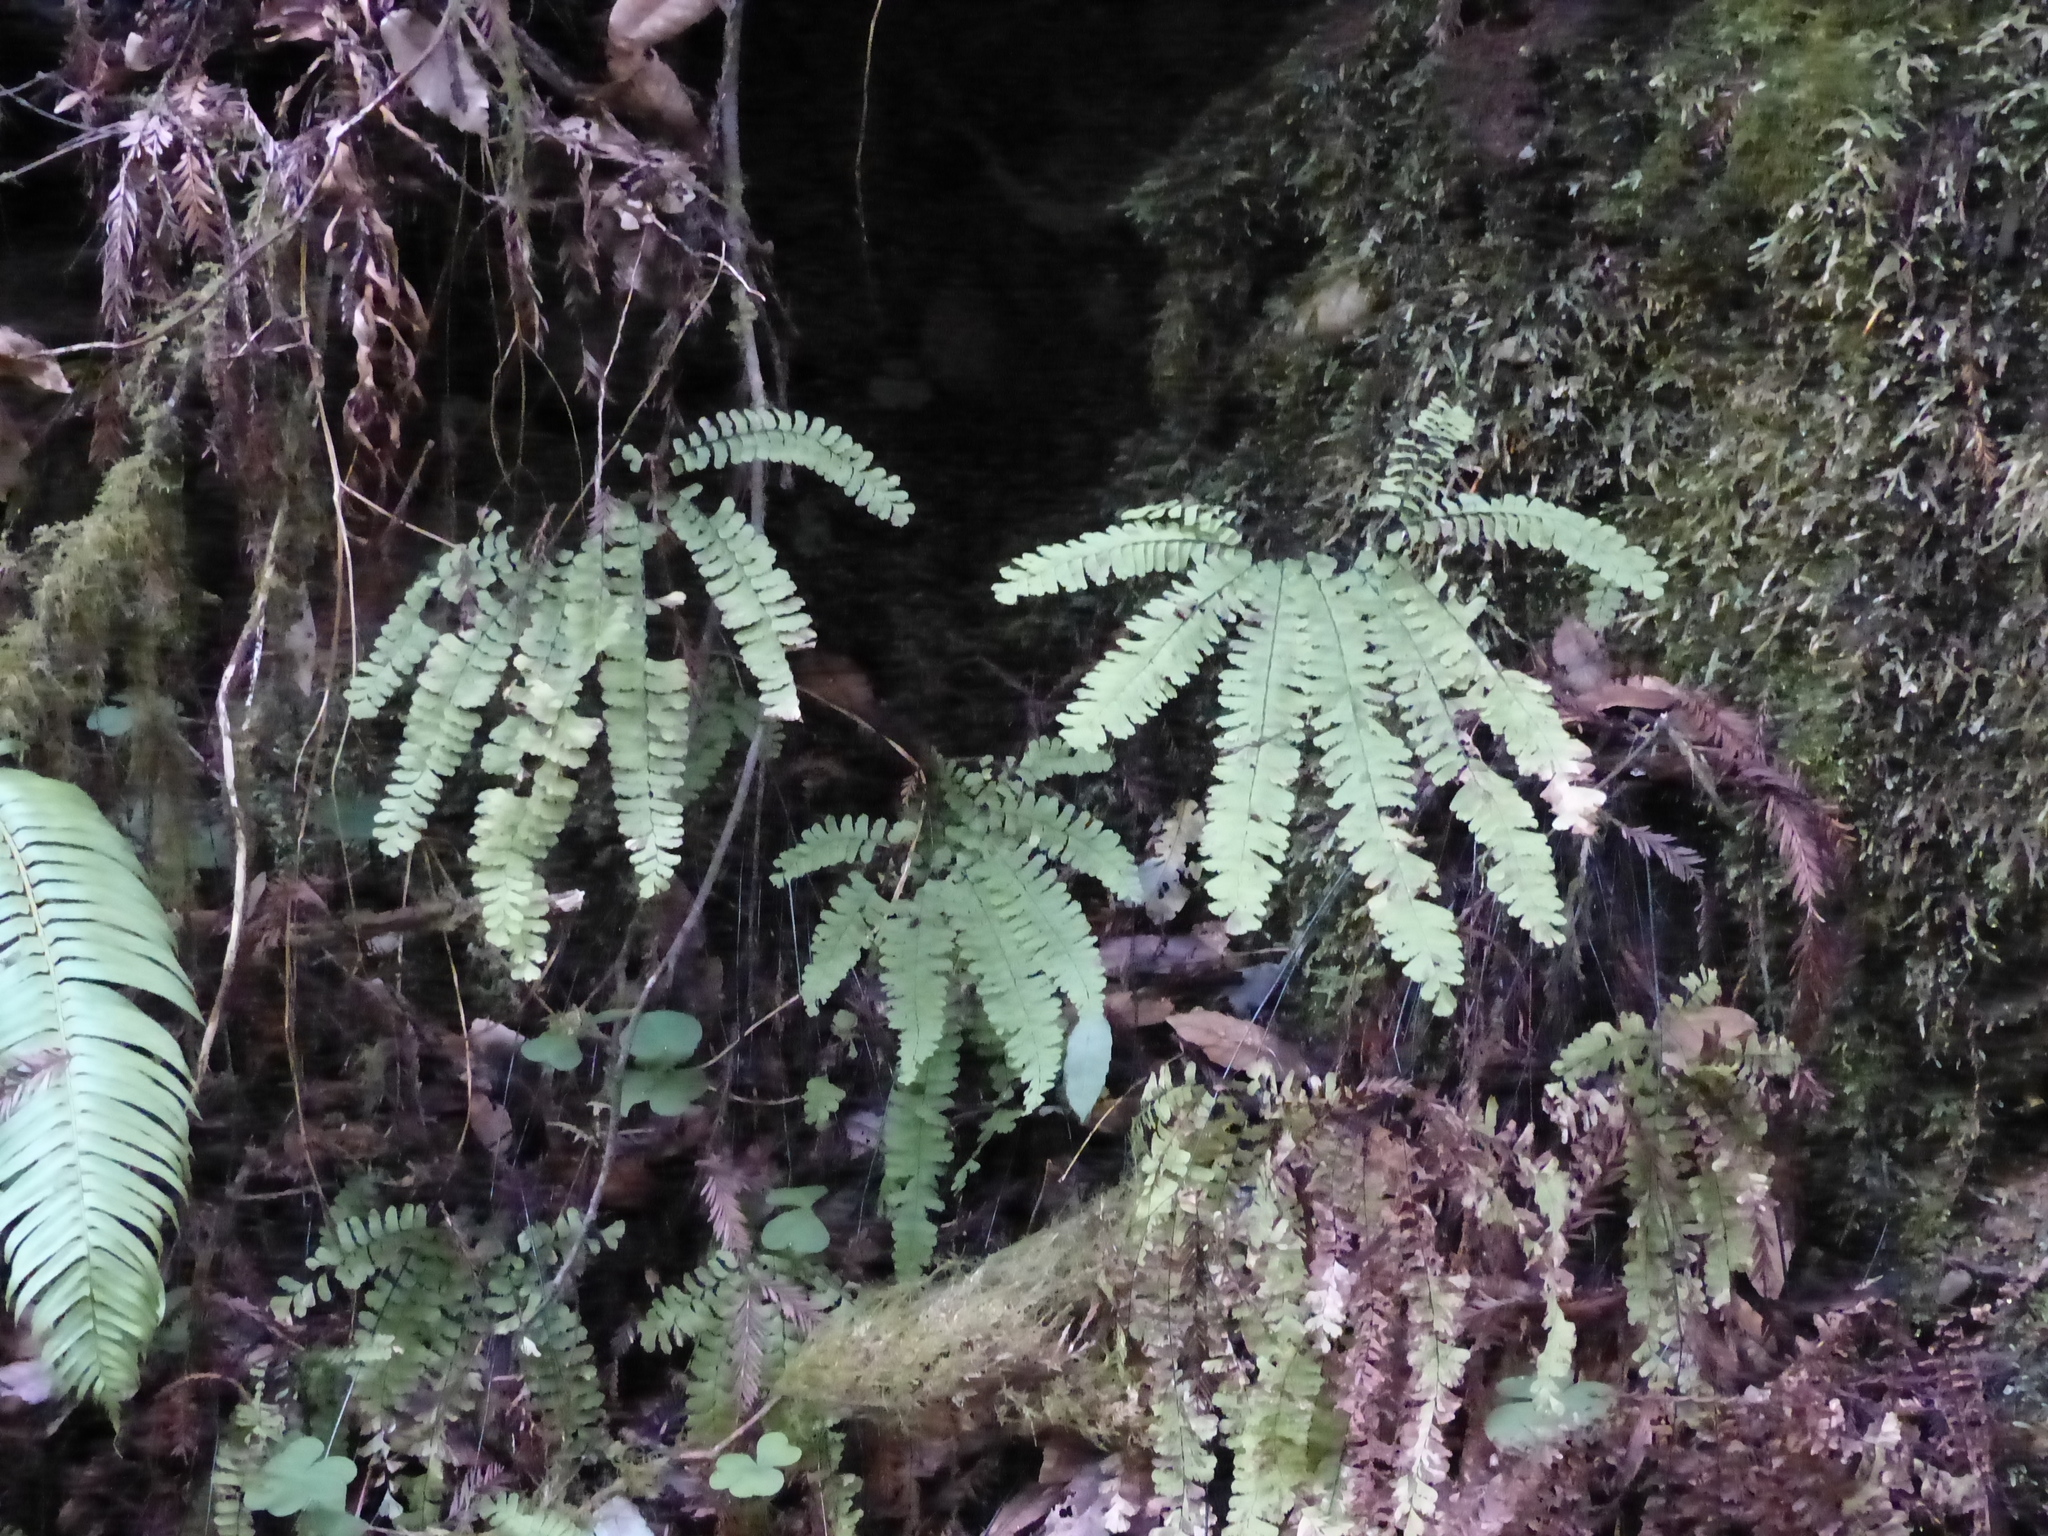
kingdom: Plantae
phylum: Tracheophyta
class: Polypodiopsida
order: Polypodiales
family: Pteridaceae
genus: Adiantum
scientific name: Adiantum aleuticum
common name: Aleutian maidenhair fern
